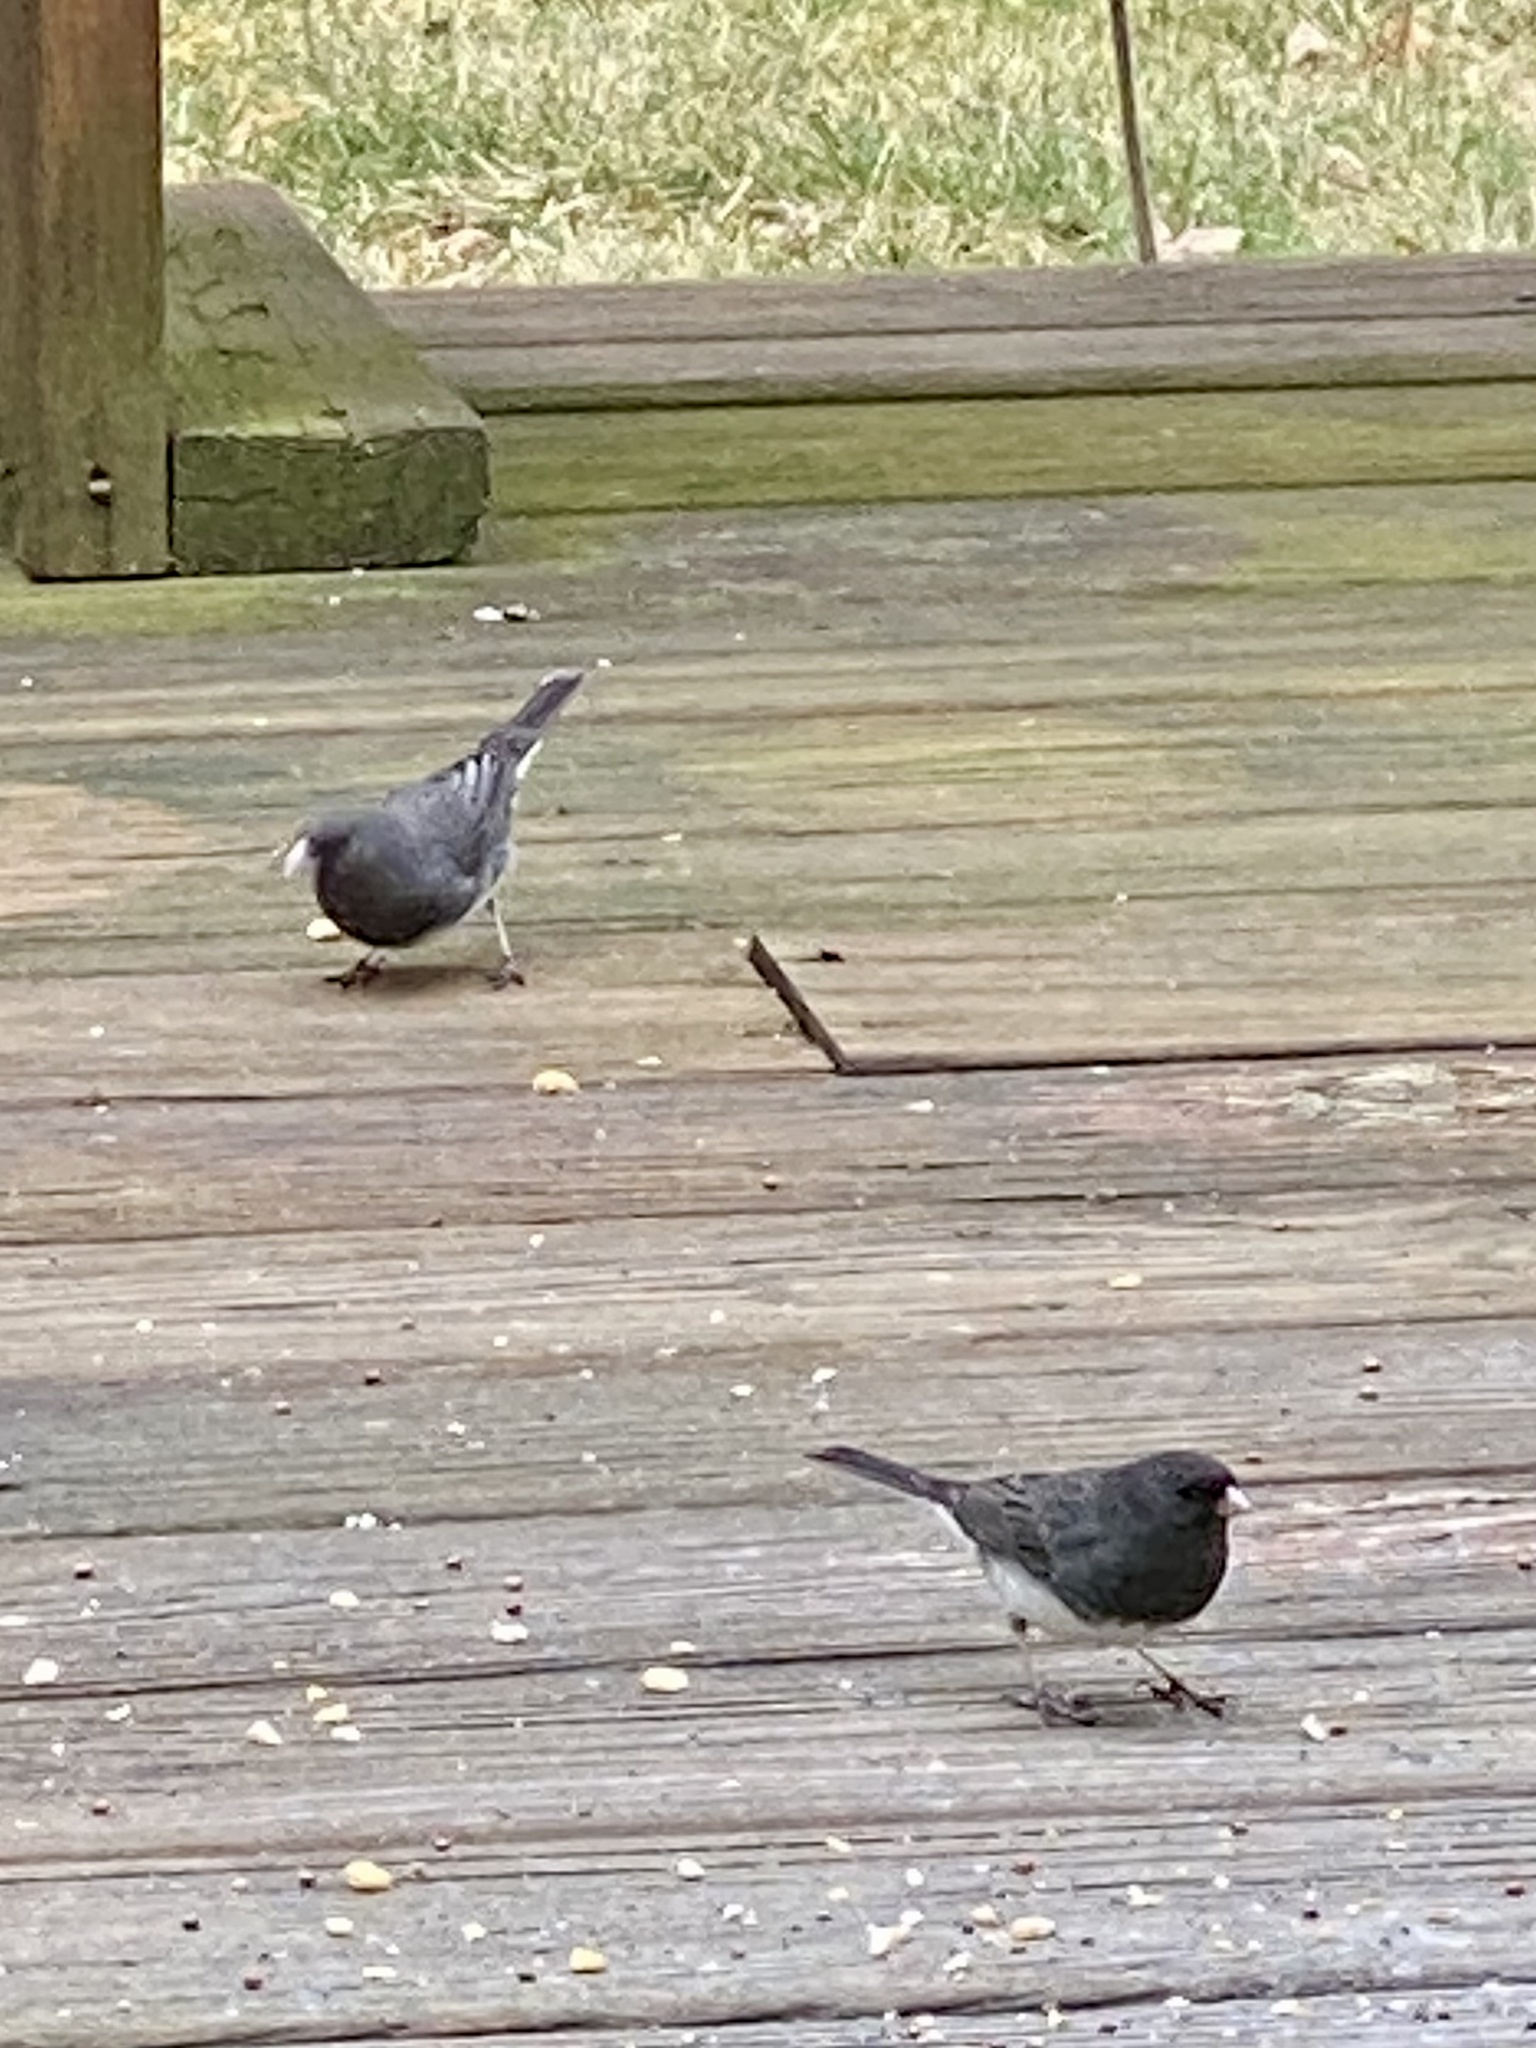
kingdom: Animalia
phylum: Chordata
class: Aves
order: Passeriformes
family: Passerellidae
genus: Junco
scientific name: Junco hyemalis
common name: Dark-eyed junco
